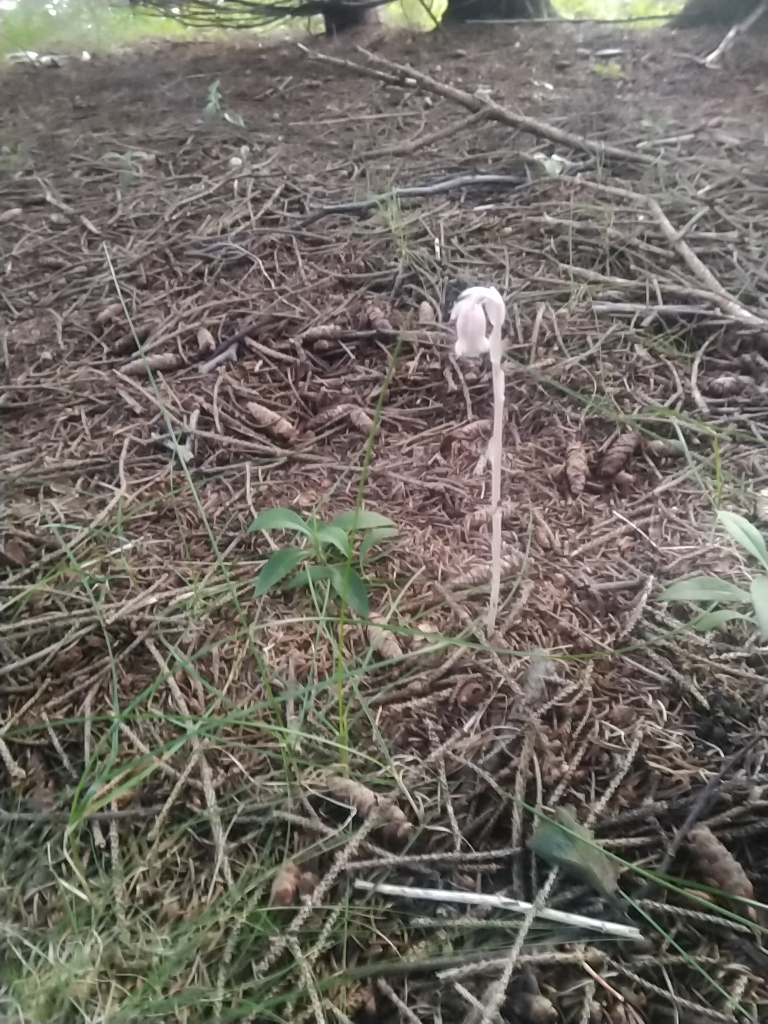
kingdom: Plantae
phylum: Tracheophyta
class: Magnoliopsida
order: Ericales
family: Ericaceae
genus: Monotropa
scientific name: Monotropa uniflora
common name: Convulsion root
